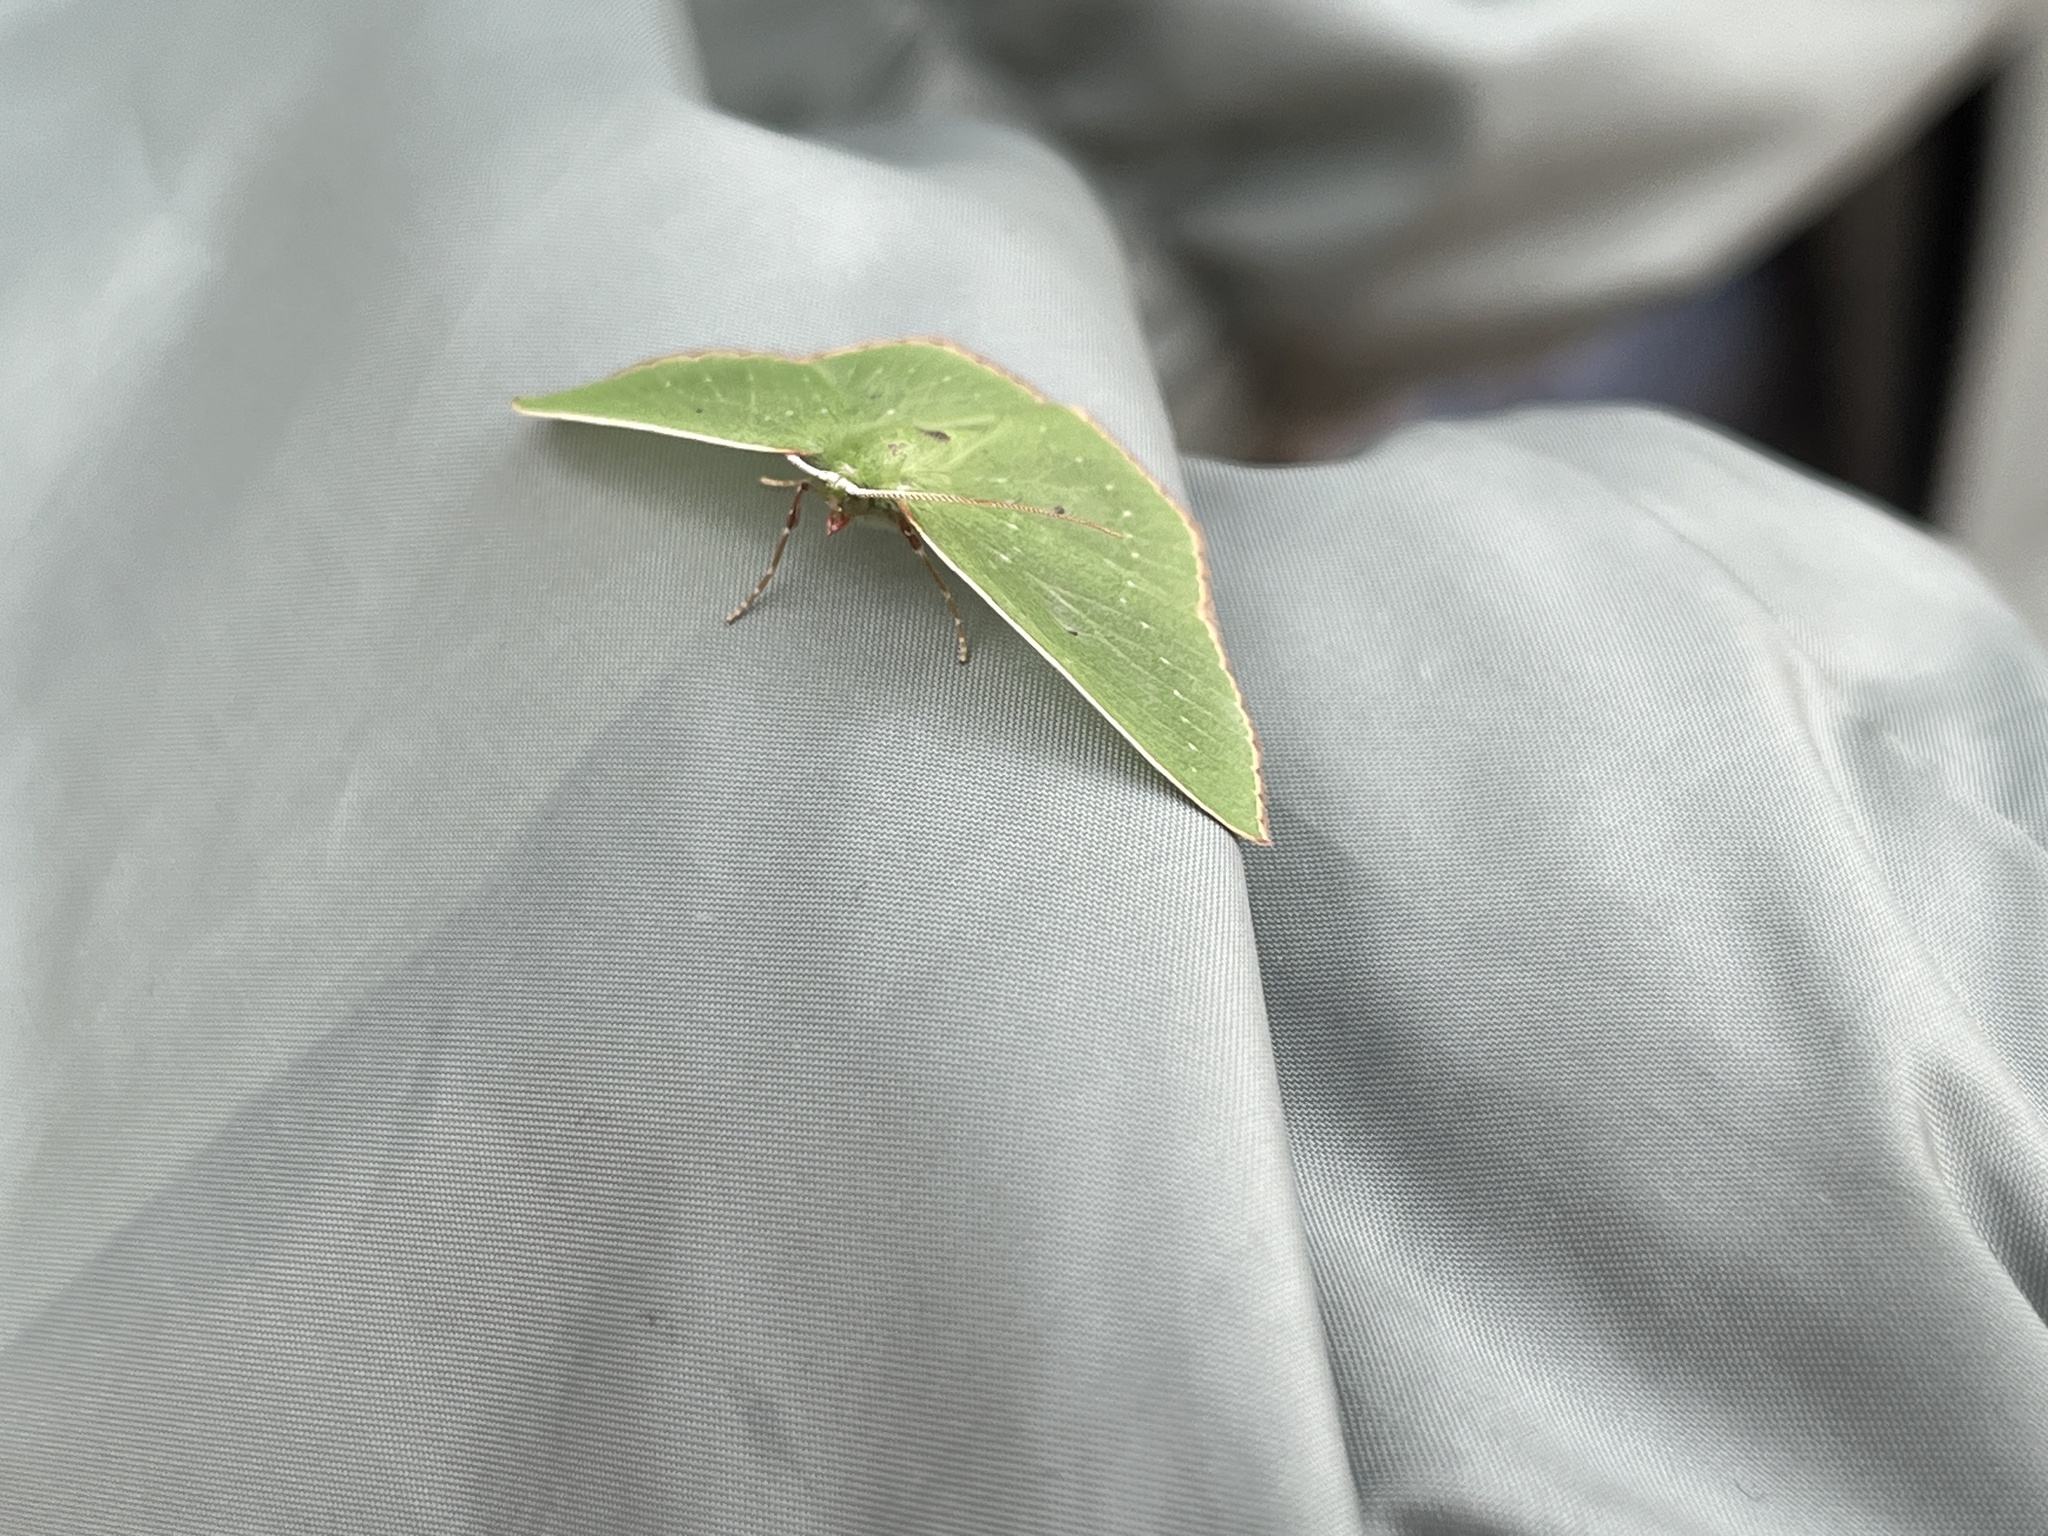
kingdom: Animalia
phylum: Arthropoda
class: Insecta
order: Lepidoptera
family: Geometridae
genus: Nemoria
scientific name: Nemoria darwiniata
